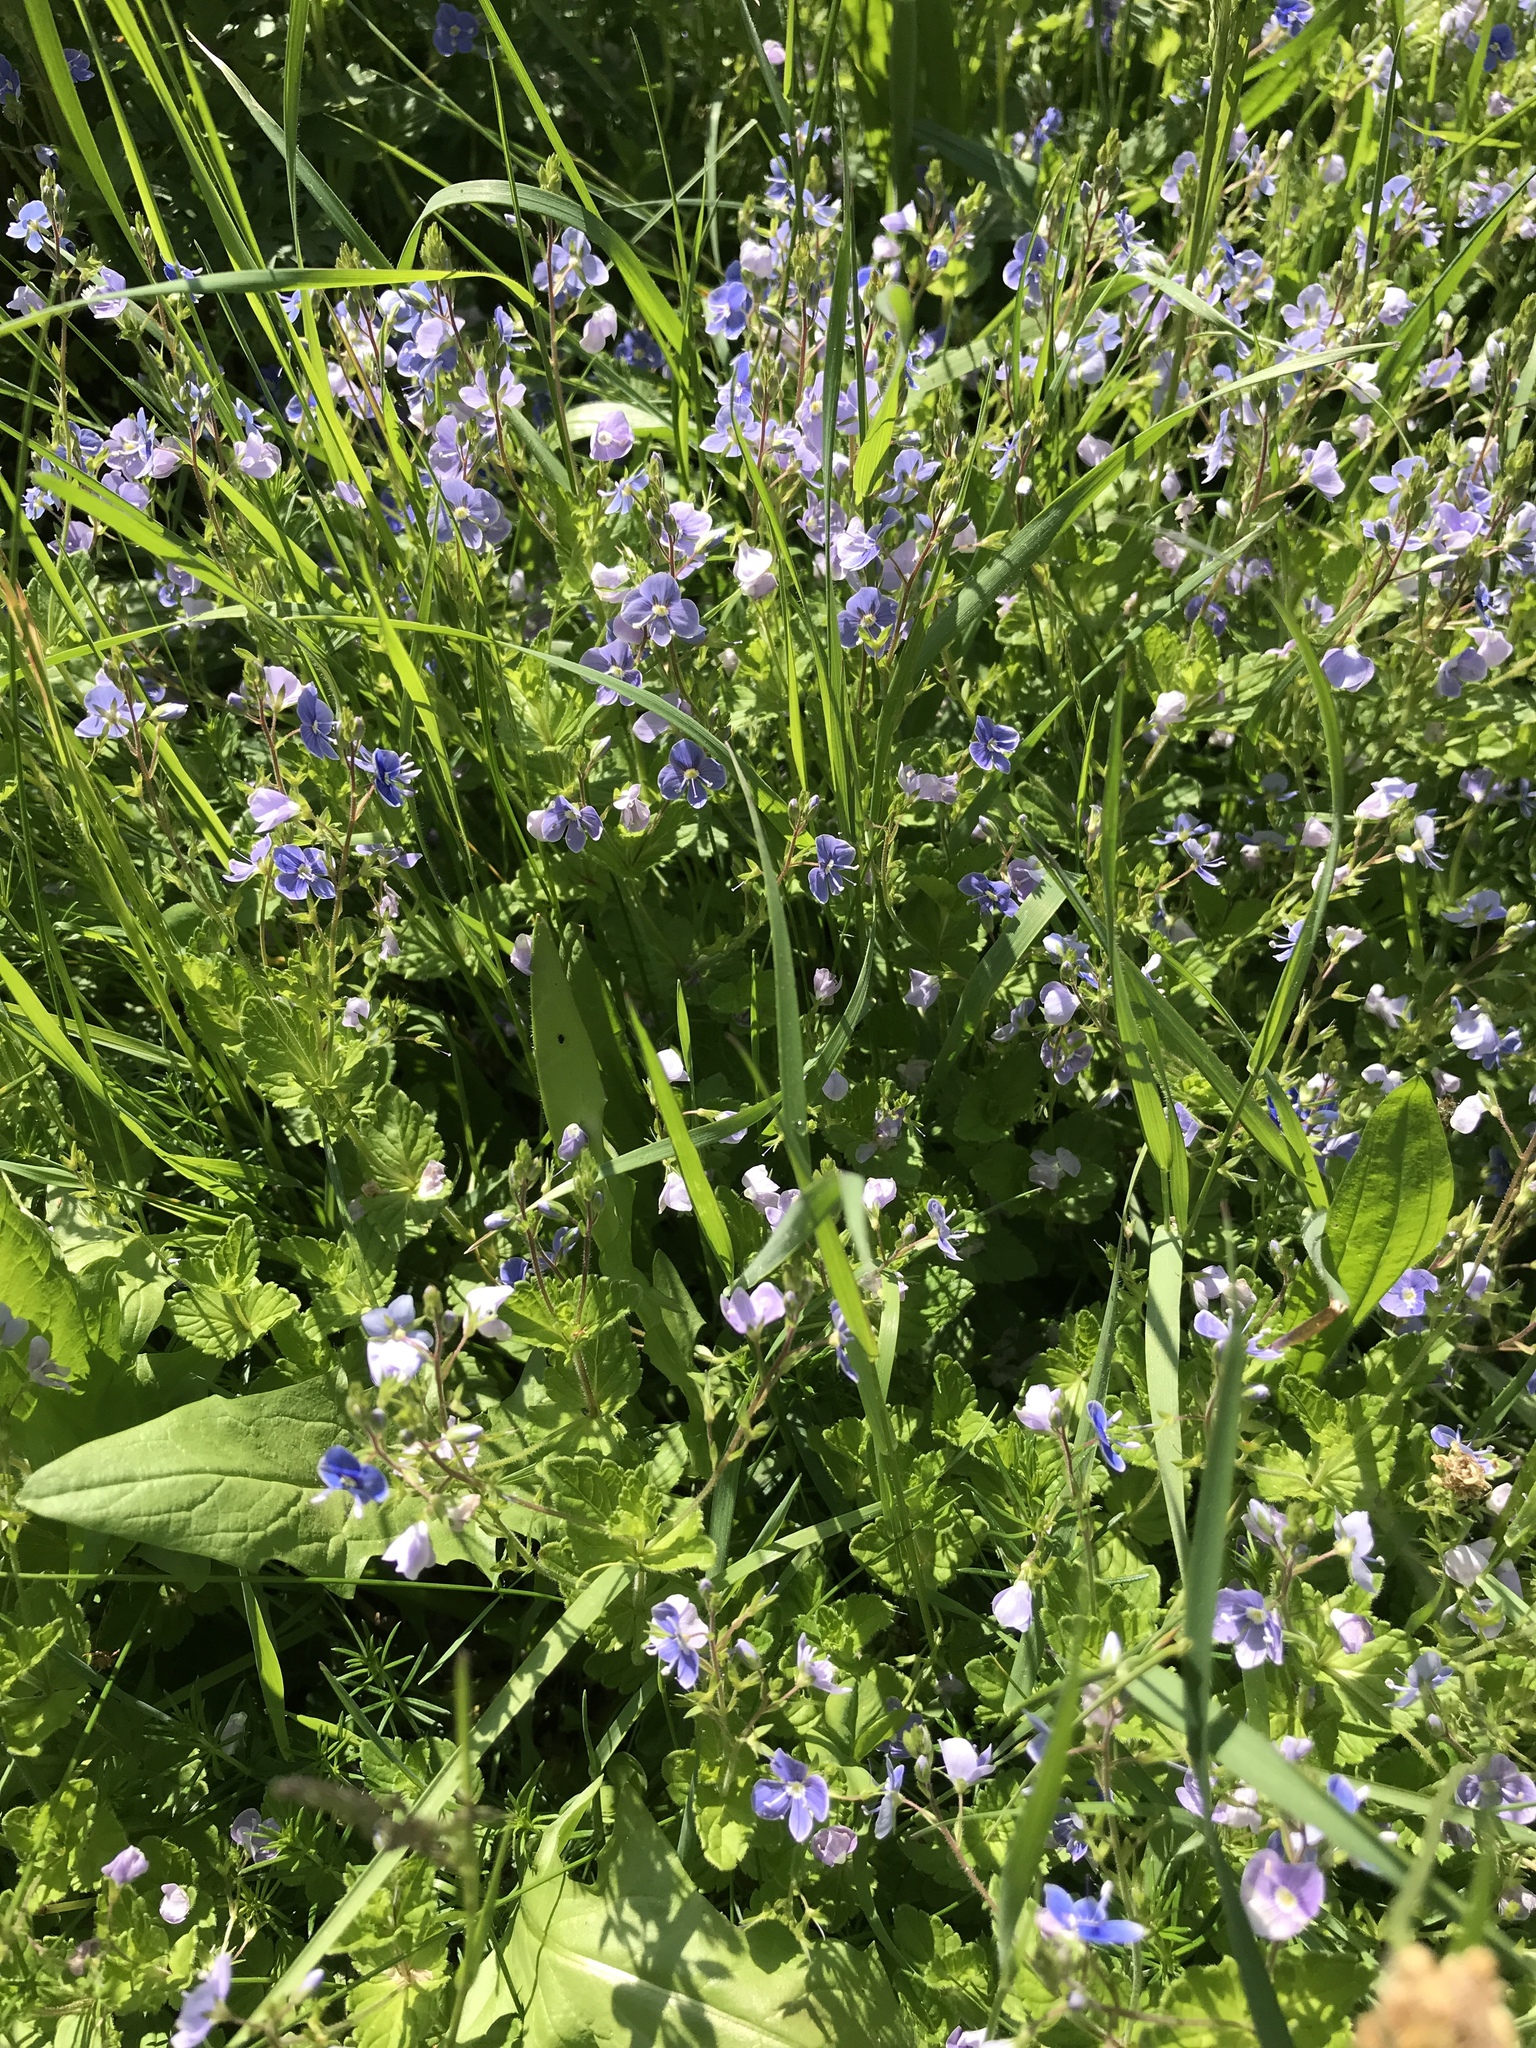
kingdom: Plantae
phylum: Tracheophyta
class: Magnoliopsida
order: Lamiales
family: Plantaginaceae
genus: Veronica
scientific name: Veronica chamaedrys
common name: Germander speedwell
